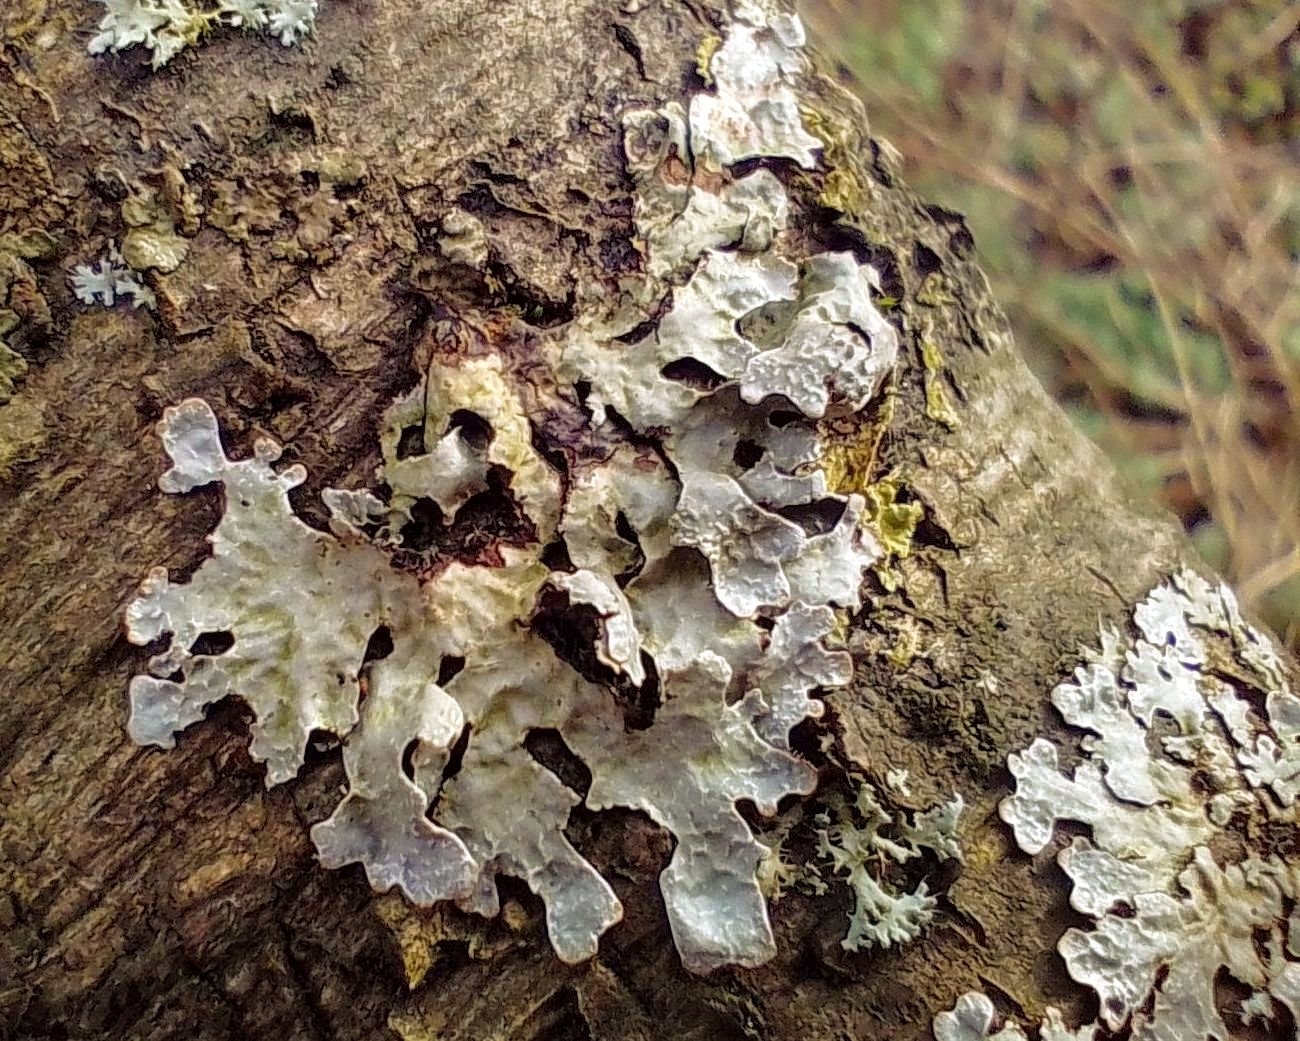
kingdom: Fungi
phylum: Ascomycota
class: Lecanoromycetes
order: Lecanorales
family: Parmeliaceae
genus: Parmelia
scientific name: Parmelia sulcata
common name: Netted shield lichen
